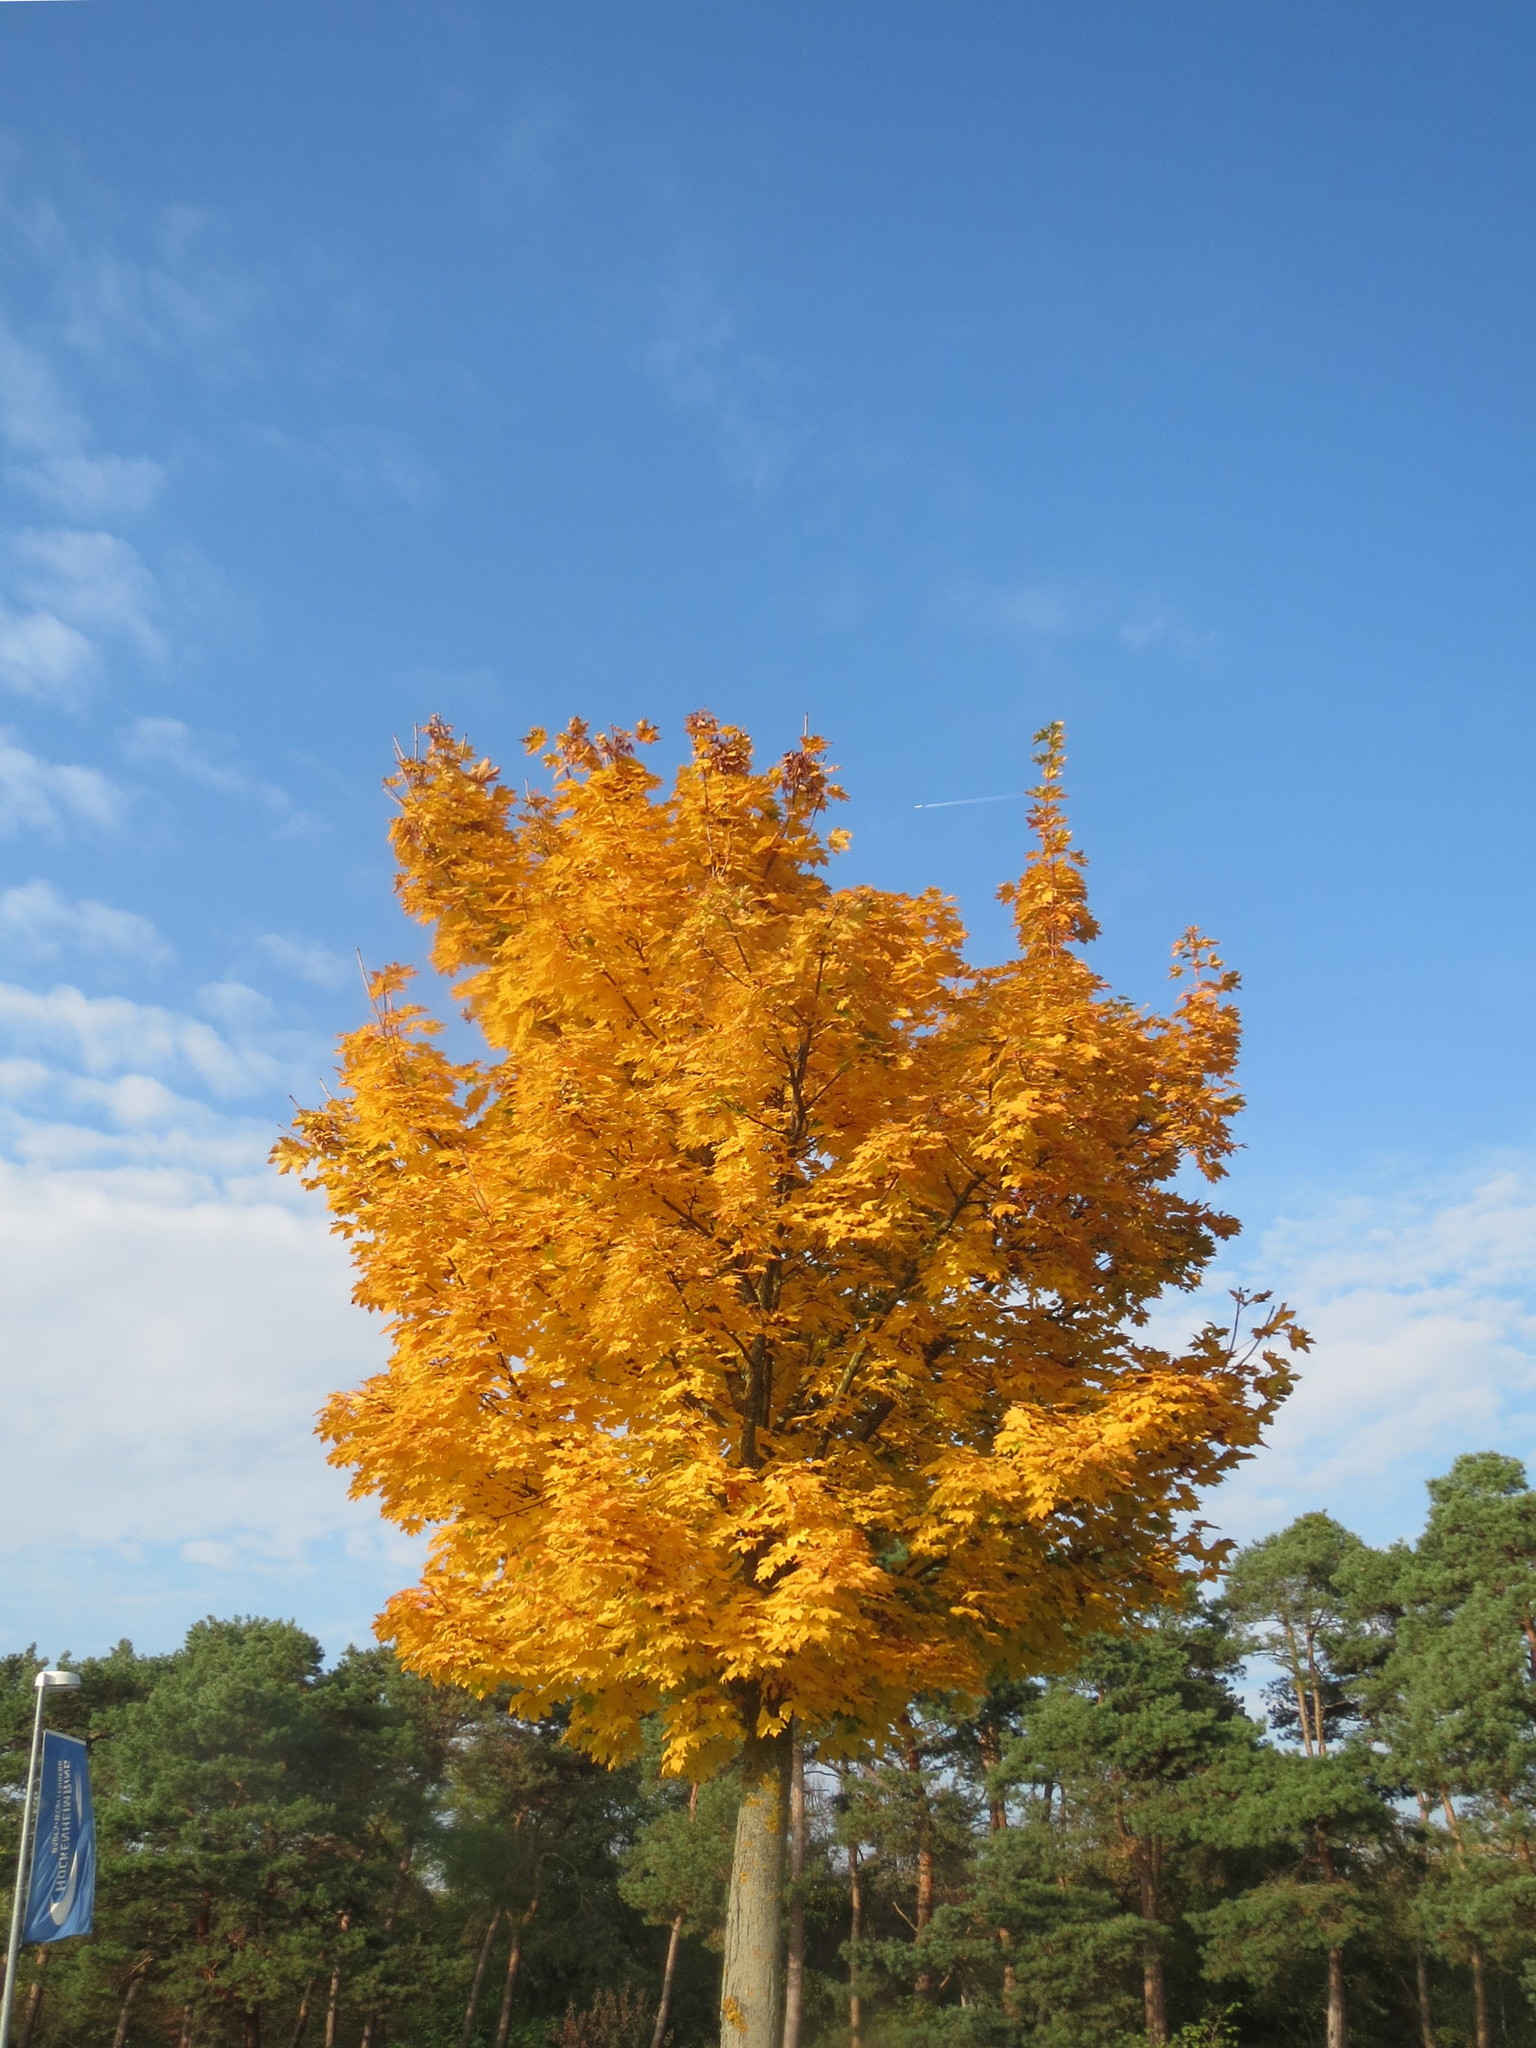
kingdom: Plantae
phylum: Tracheophyta
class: Magnoliopsida
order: Sapindales
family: Sapindaceae
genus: Acer
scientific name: Acer platanoides
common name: Norway maple
